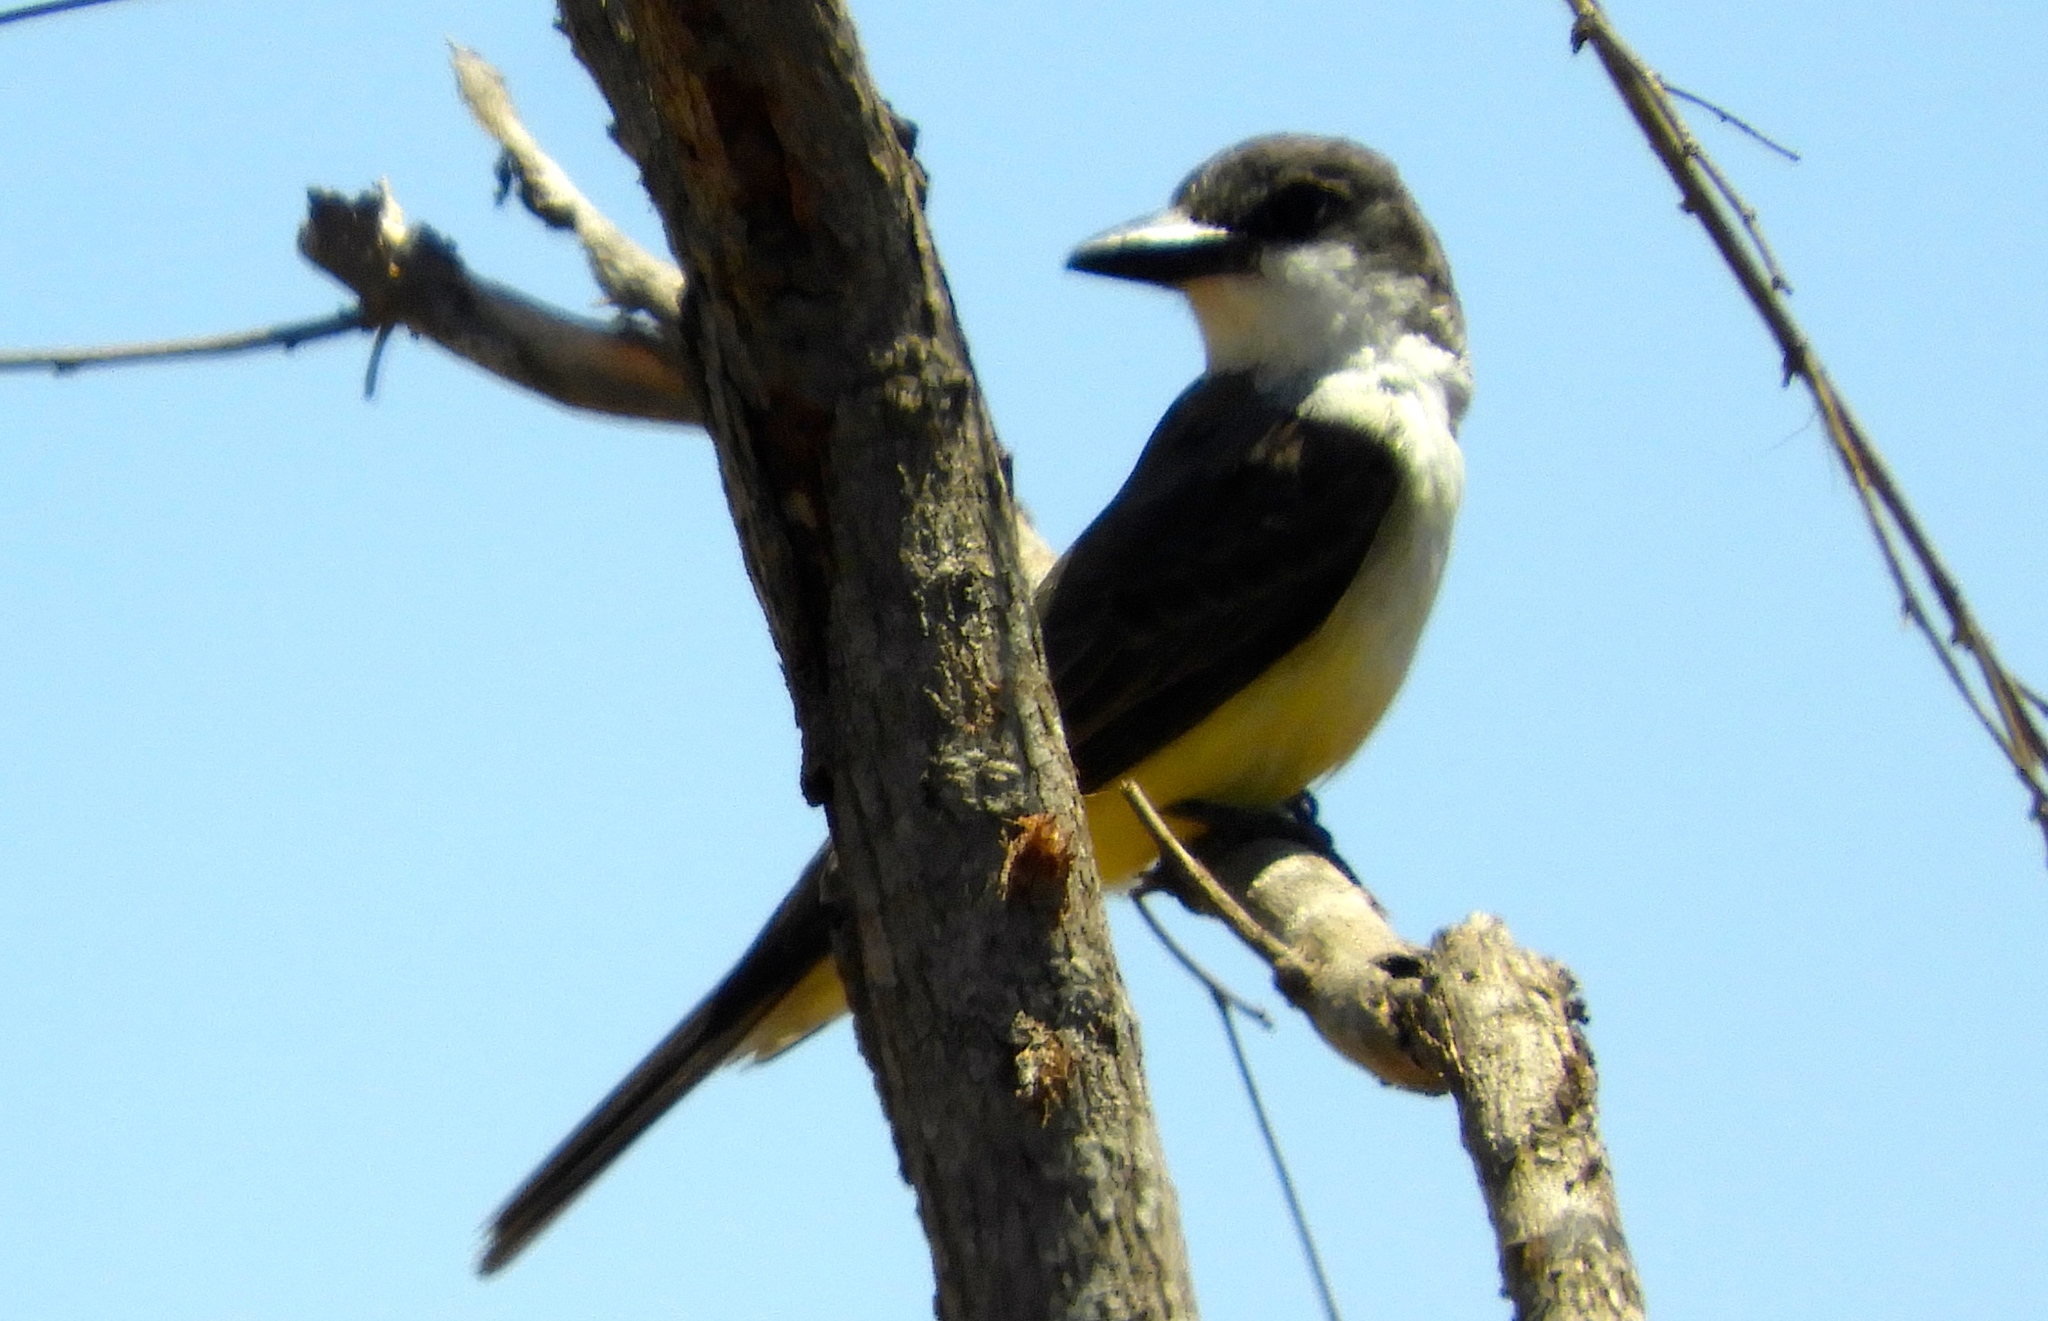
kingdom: Animalia
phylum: Chordata
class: Aves
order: Passeriformes
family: Tyrannidae
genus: Tyrannus
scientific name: Tyrannus crassirostris
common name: Thick-billed kingbird
